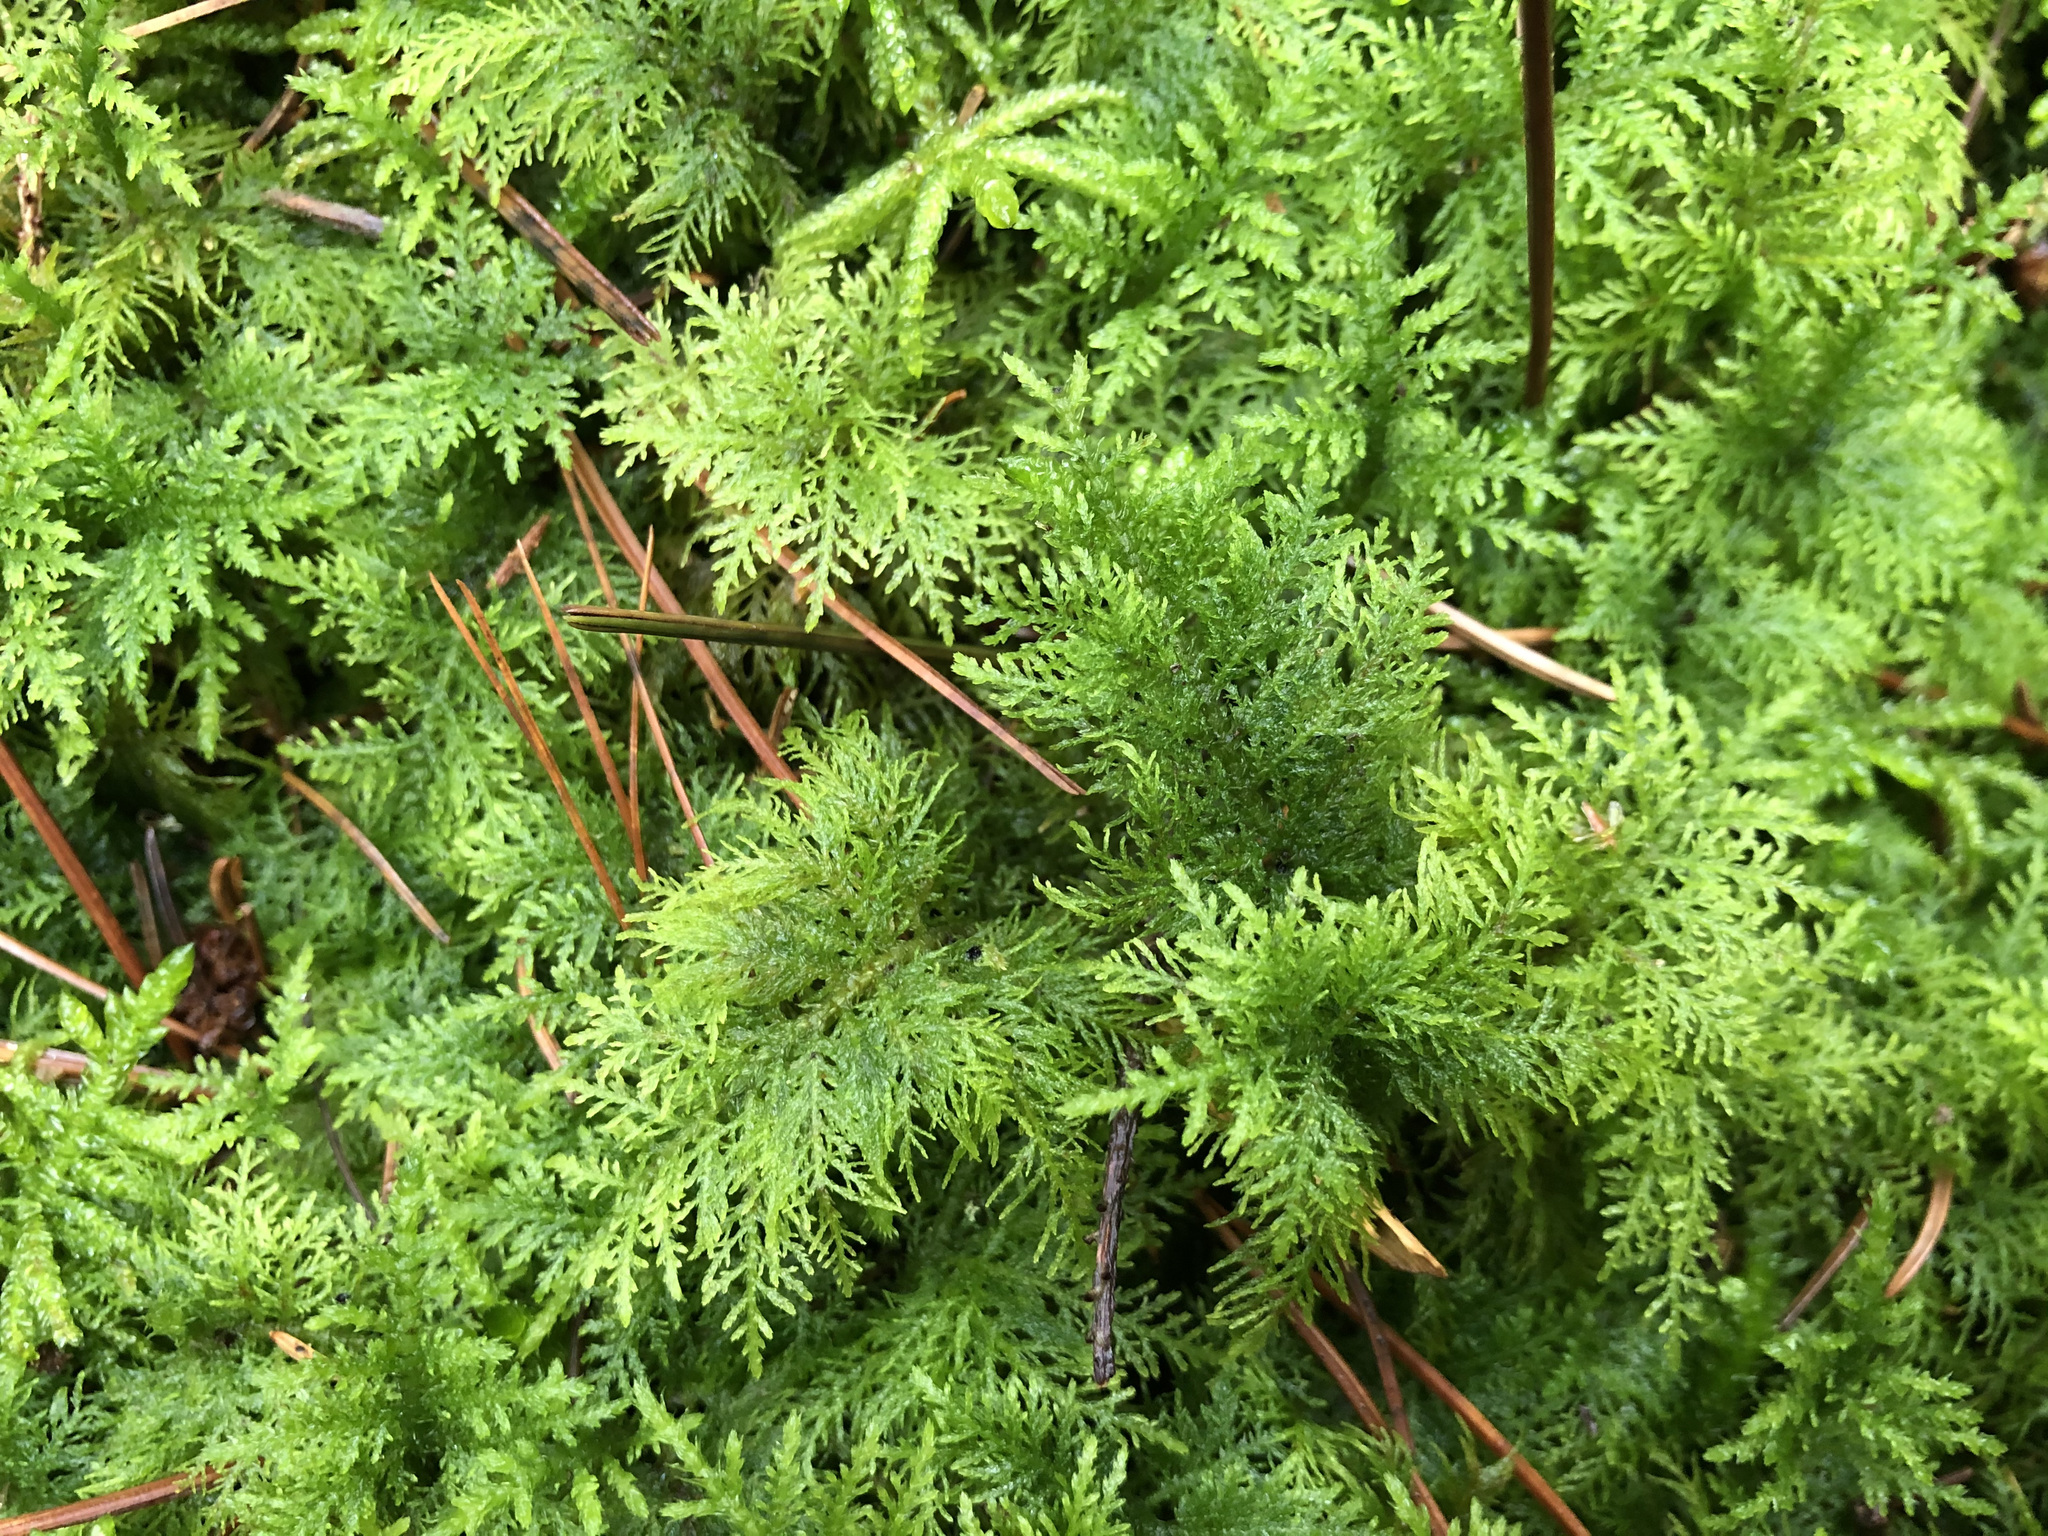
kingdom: Plantae
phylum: Bryophyta
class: Bryopsida
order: Hypnales
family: Thuidiaceae
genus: Thuidium
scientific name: Thuidium tamariscinum
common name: Common tamarisk-moss
